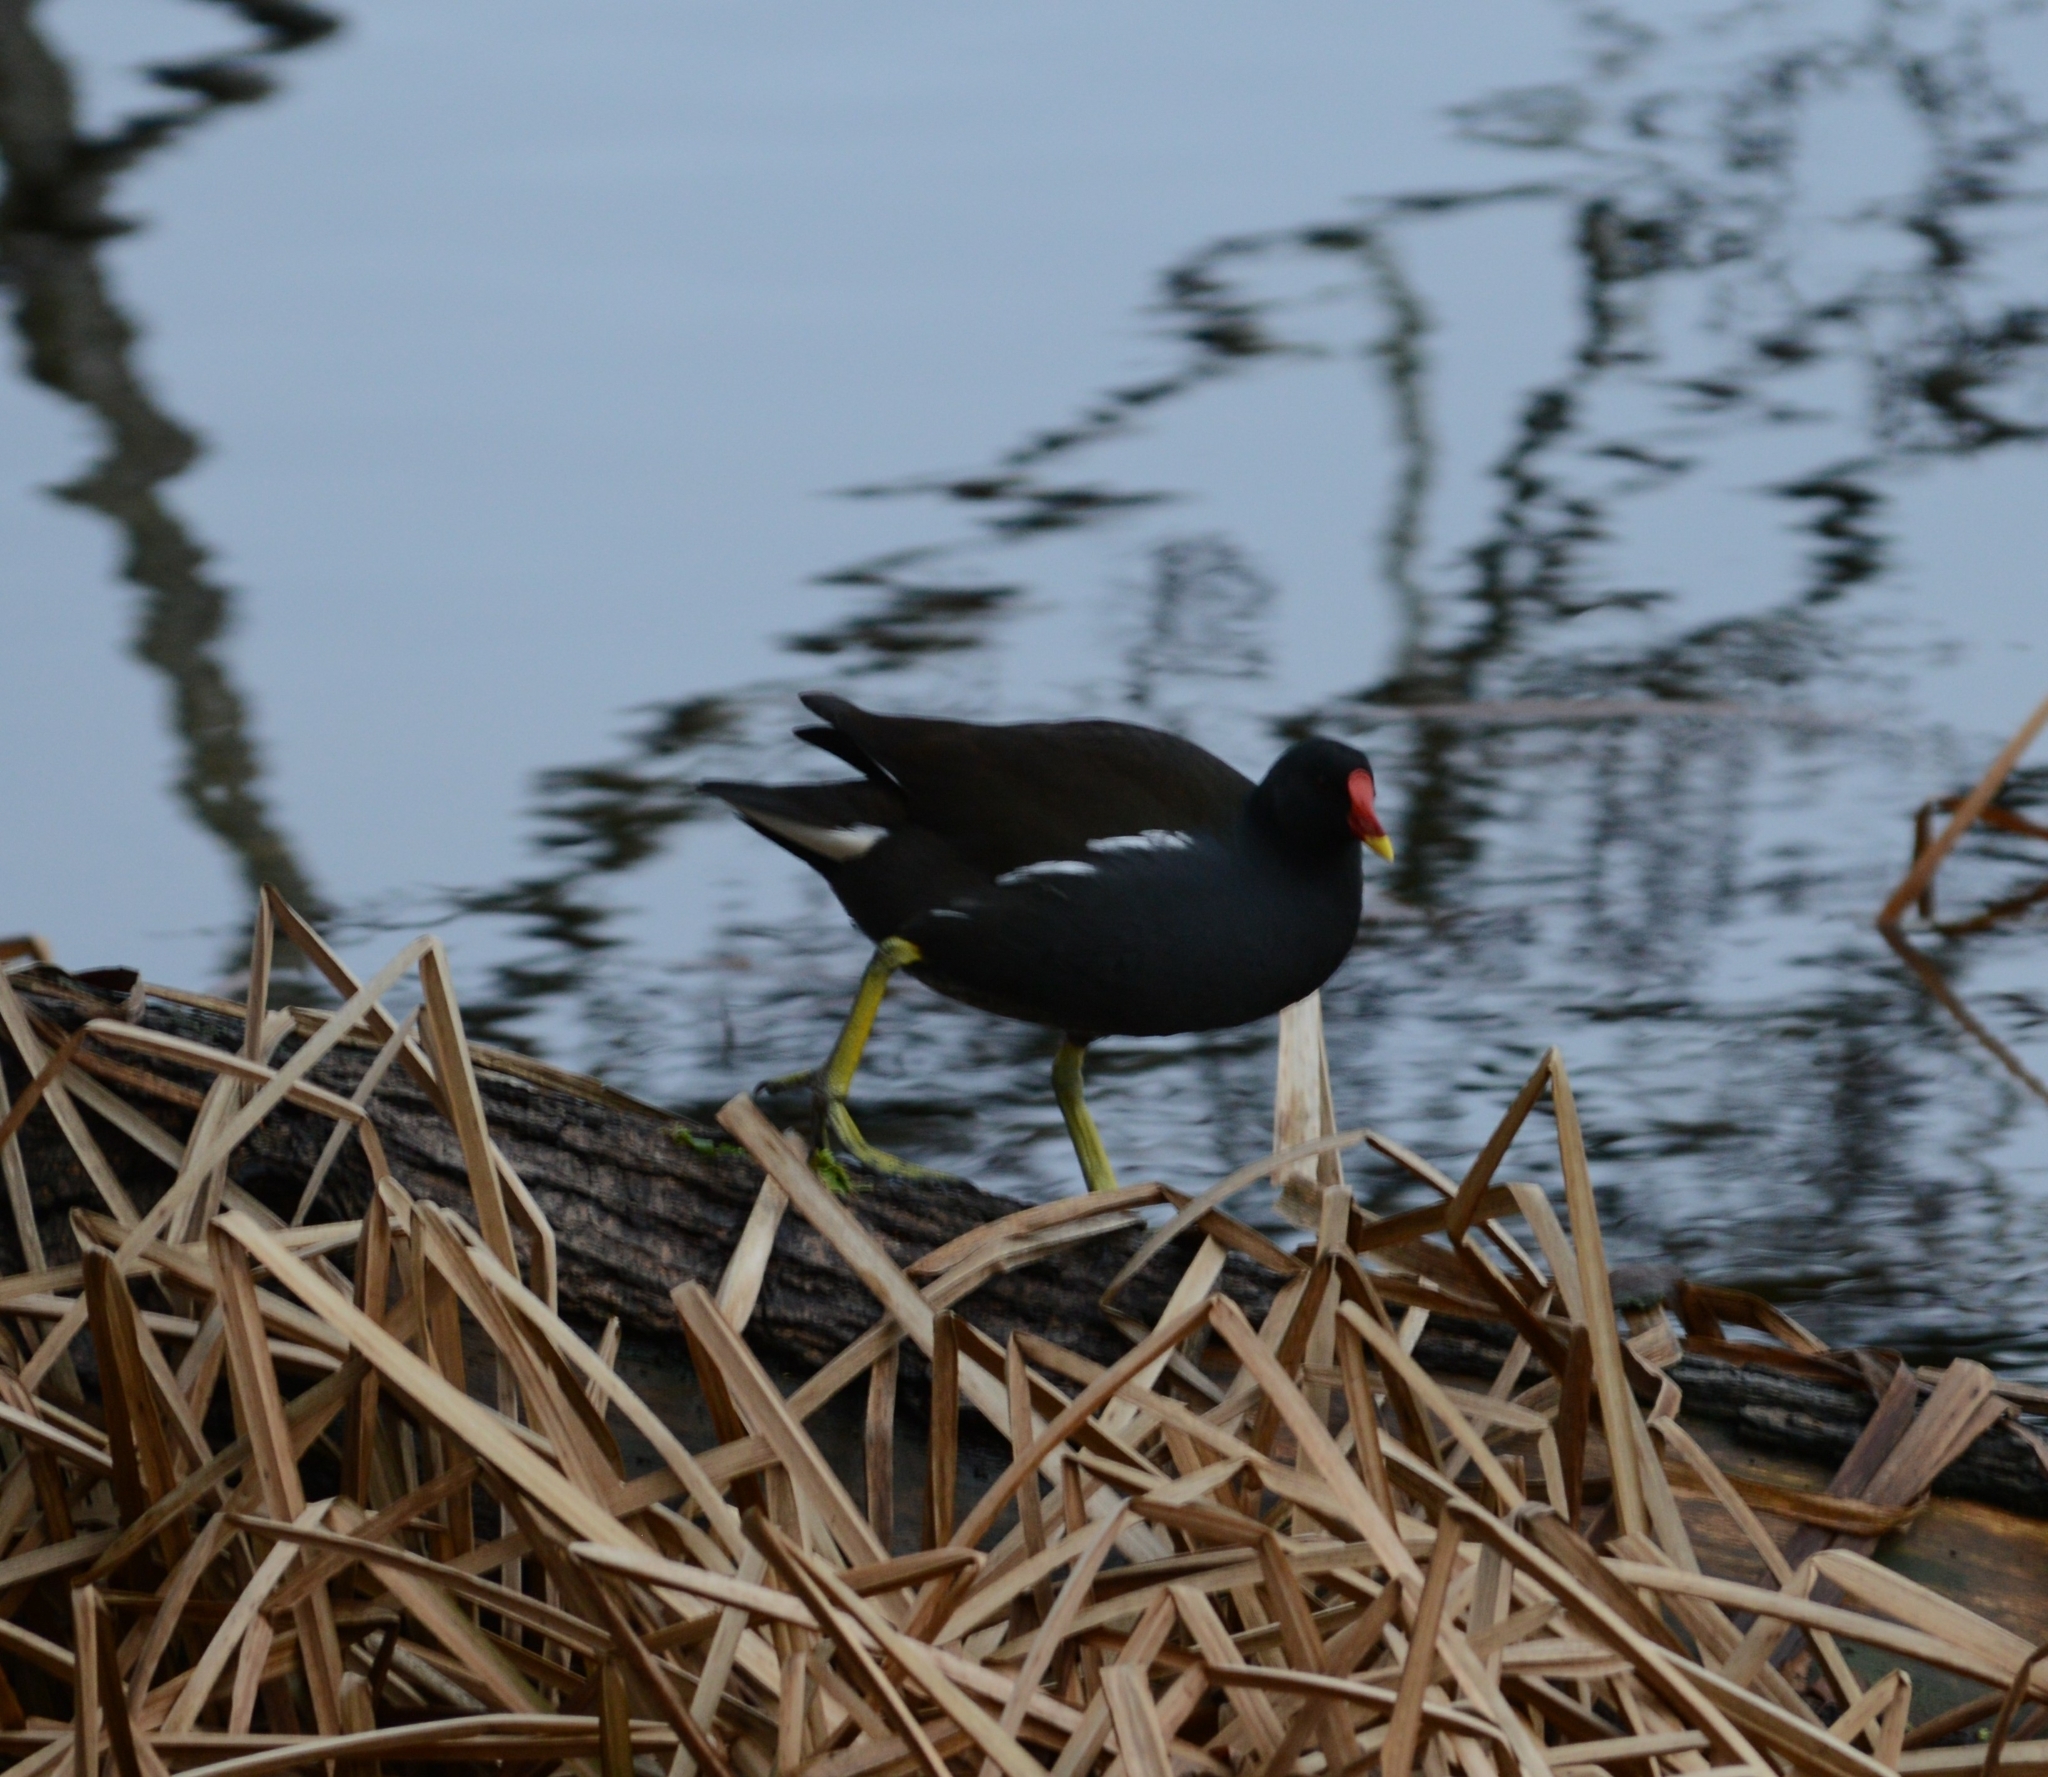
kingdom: Animalia
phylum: Chordata
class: Aves
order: Gruiformes
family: Rallidae
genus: Gallinula
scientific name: Gallinula chloropus
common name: Common moorhen
